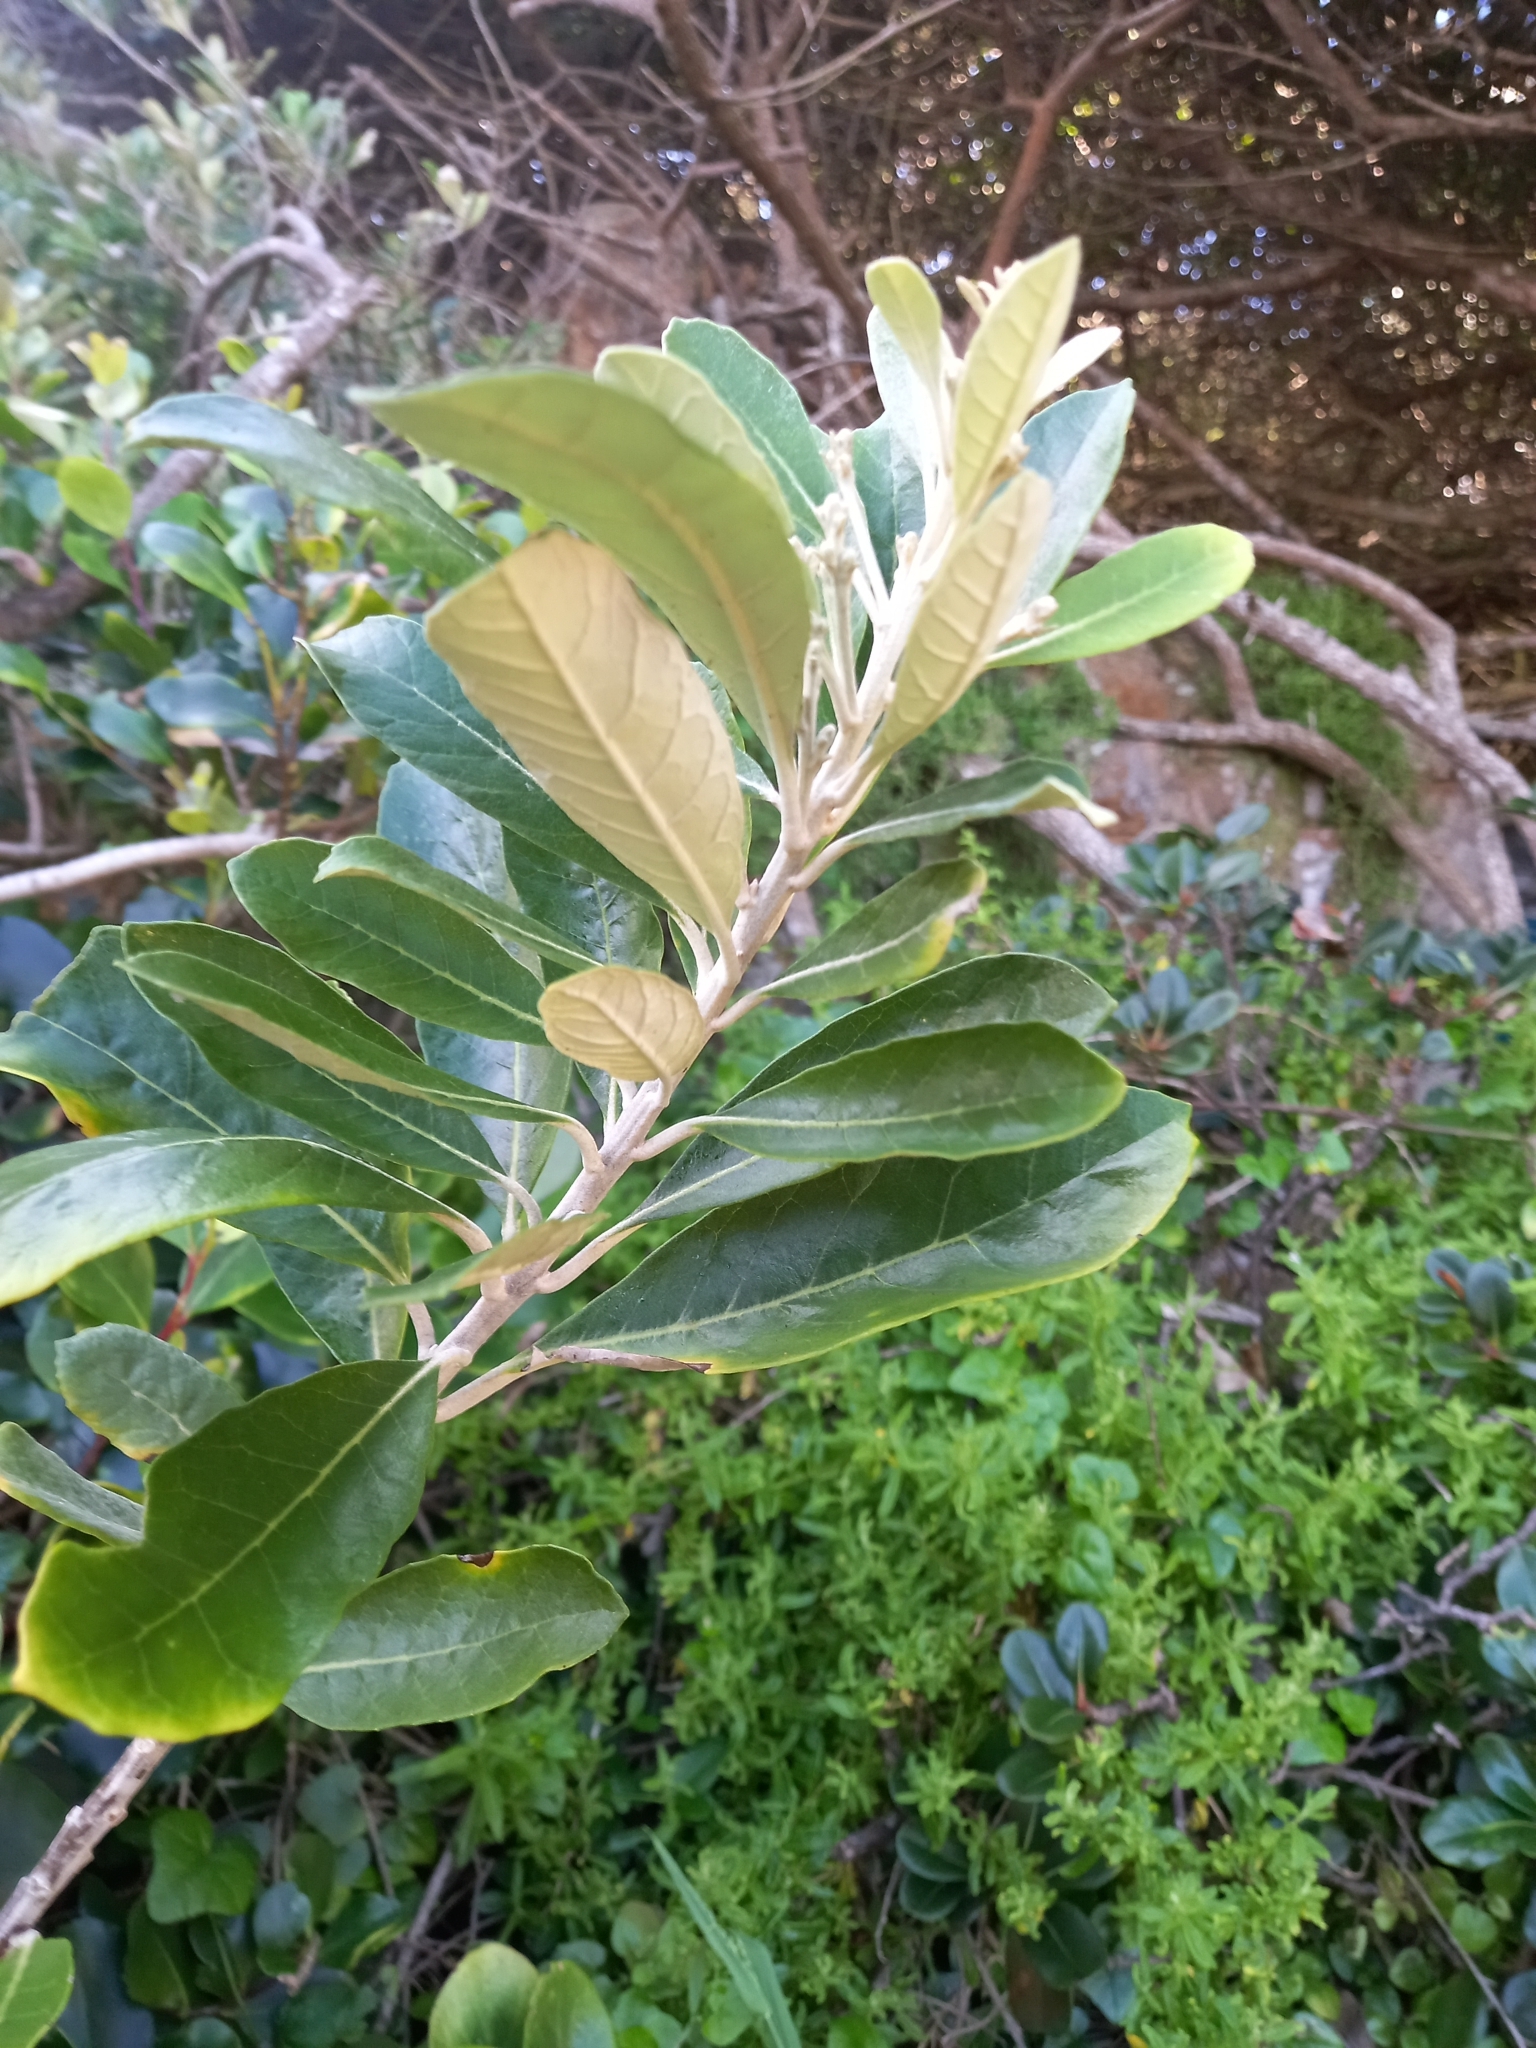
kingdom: Plantae
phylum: Tracheophyta
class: Magnoliopsida
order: Asterales
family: Asteraceae
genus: Brachylaena
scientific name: Brachylaena discolor
